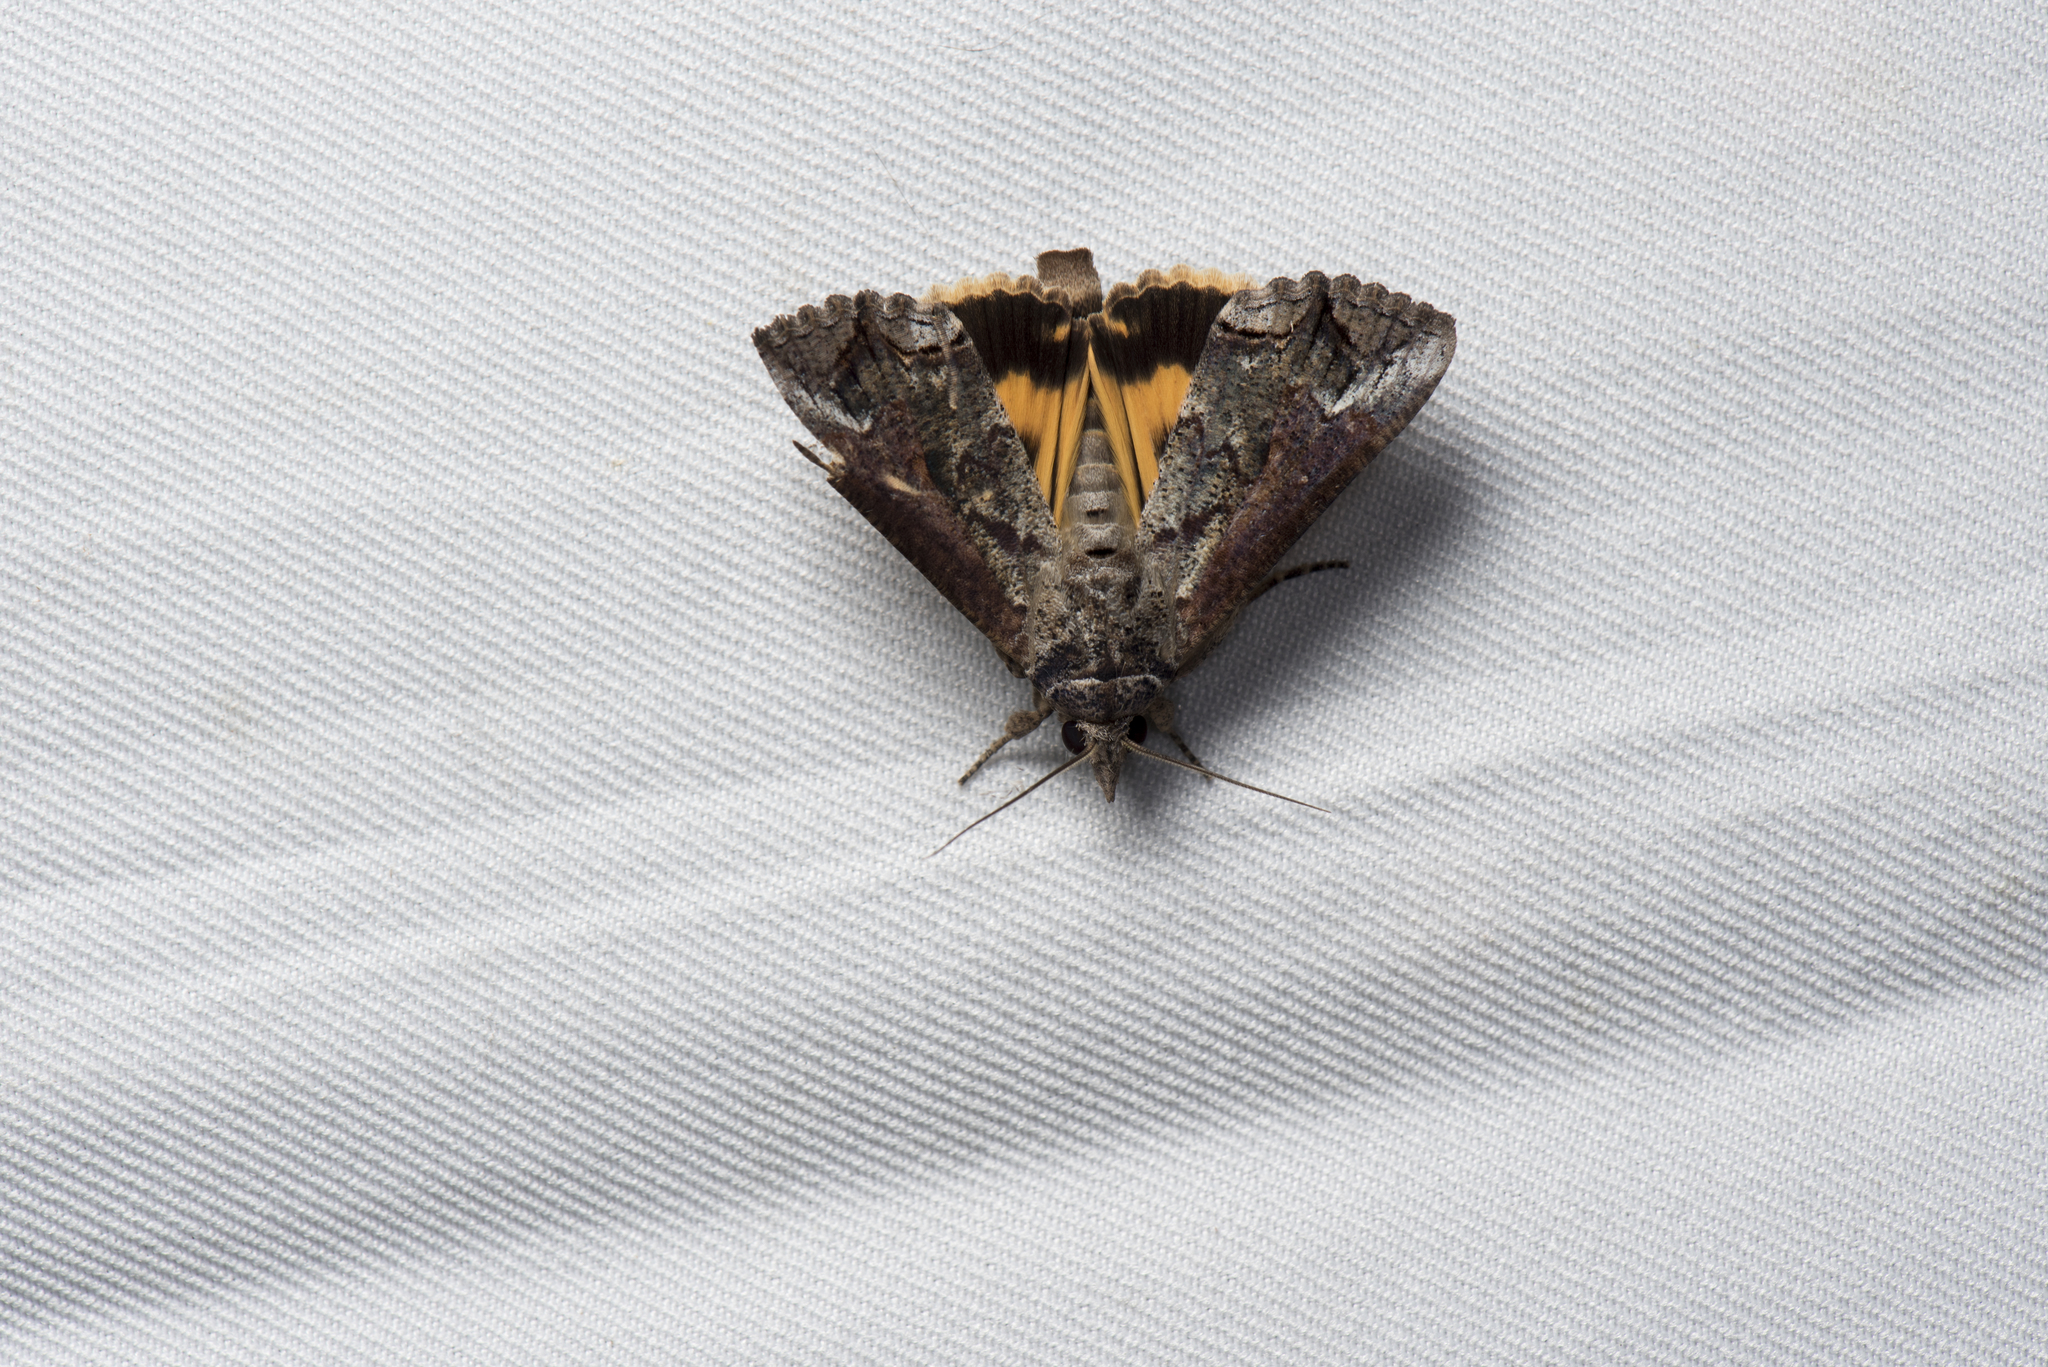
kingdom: Animalia
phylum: Arthropoda
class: Insecta
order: Lepidoptera
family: Erebidae
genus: Hypocala
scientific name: Hypocala deflorata
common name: Moth
